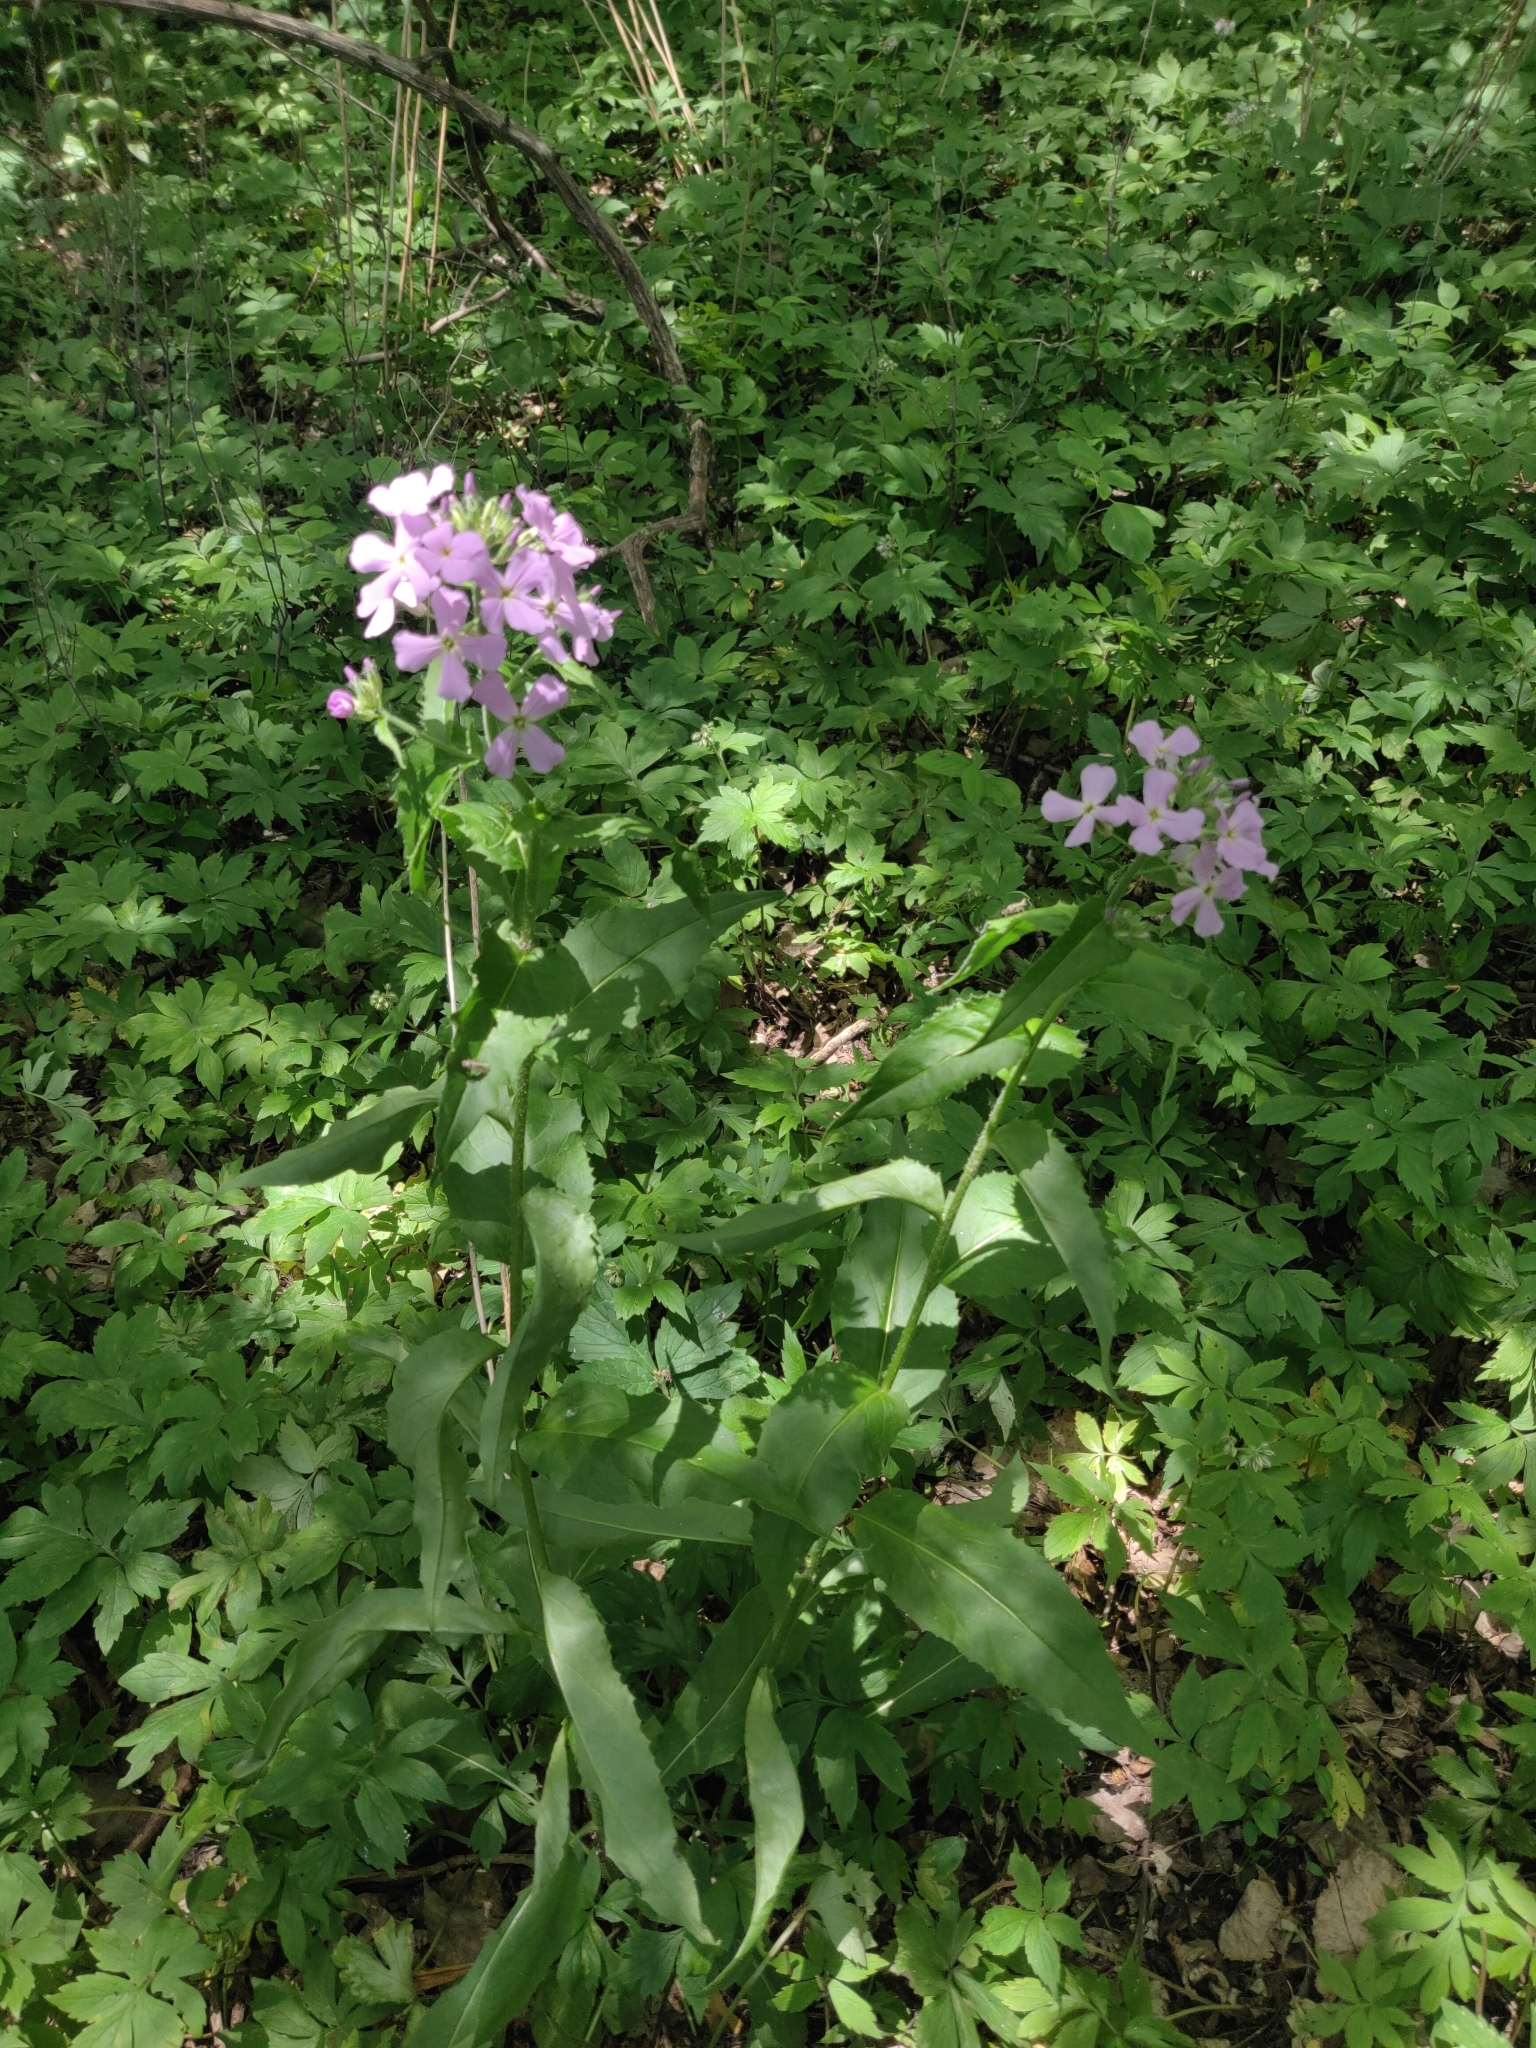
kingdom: Plantae
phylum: Tracheophyta
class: Magnoliopsida
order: Brassicales
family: Brassicaceae
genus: Hesperis
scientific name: Hesperis matronalis
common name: Dame's-violet
